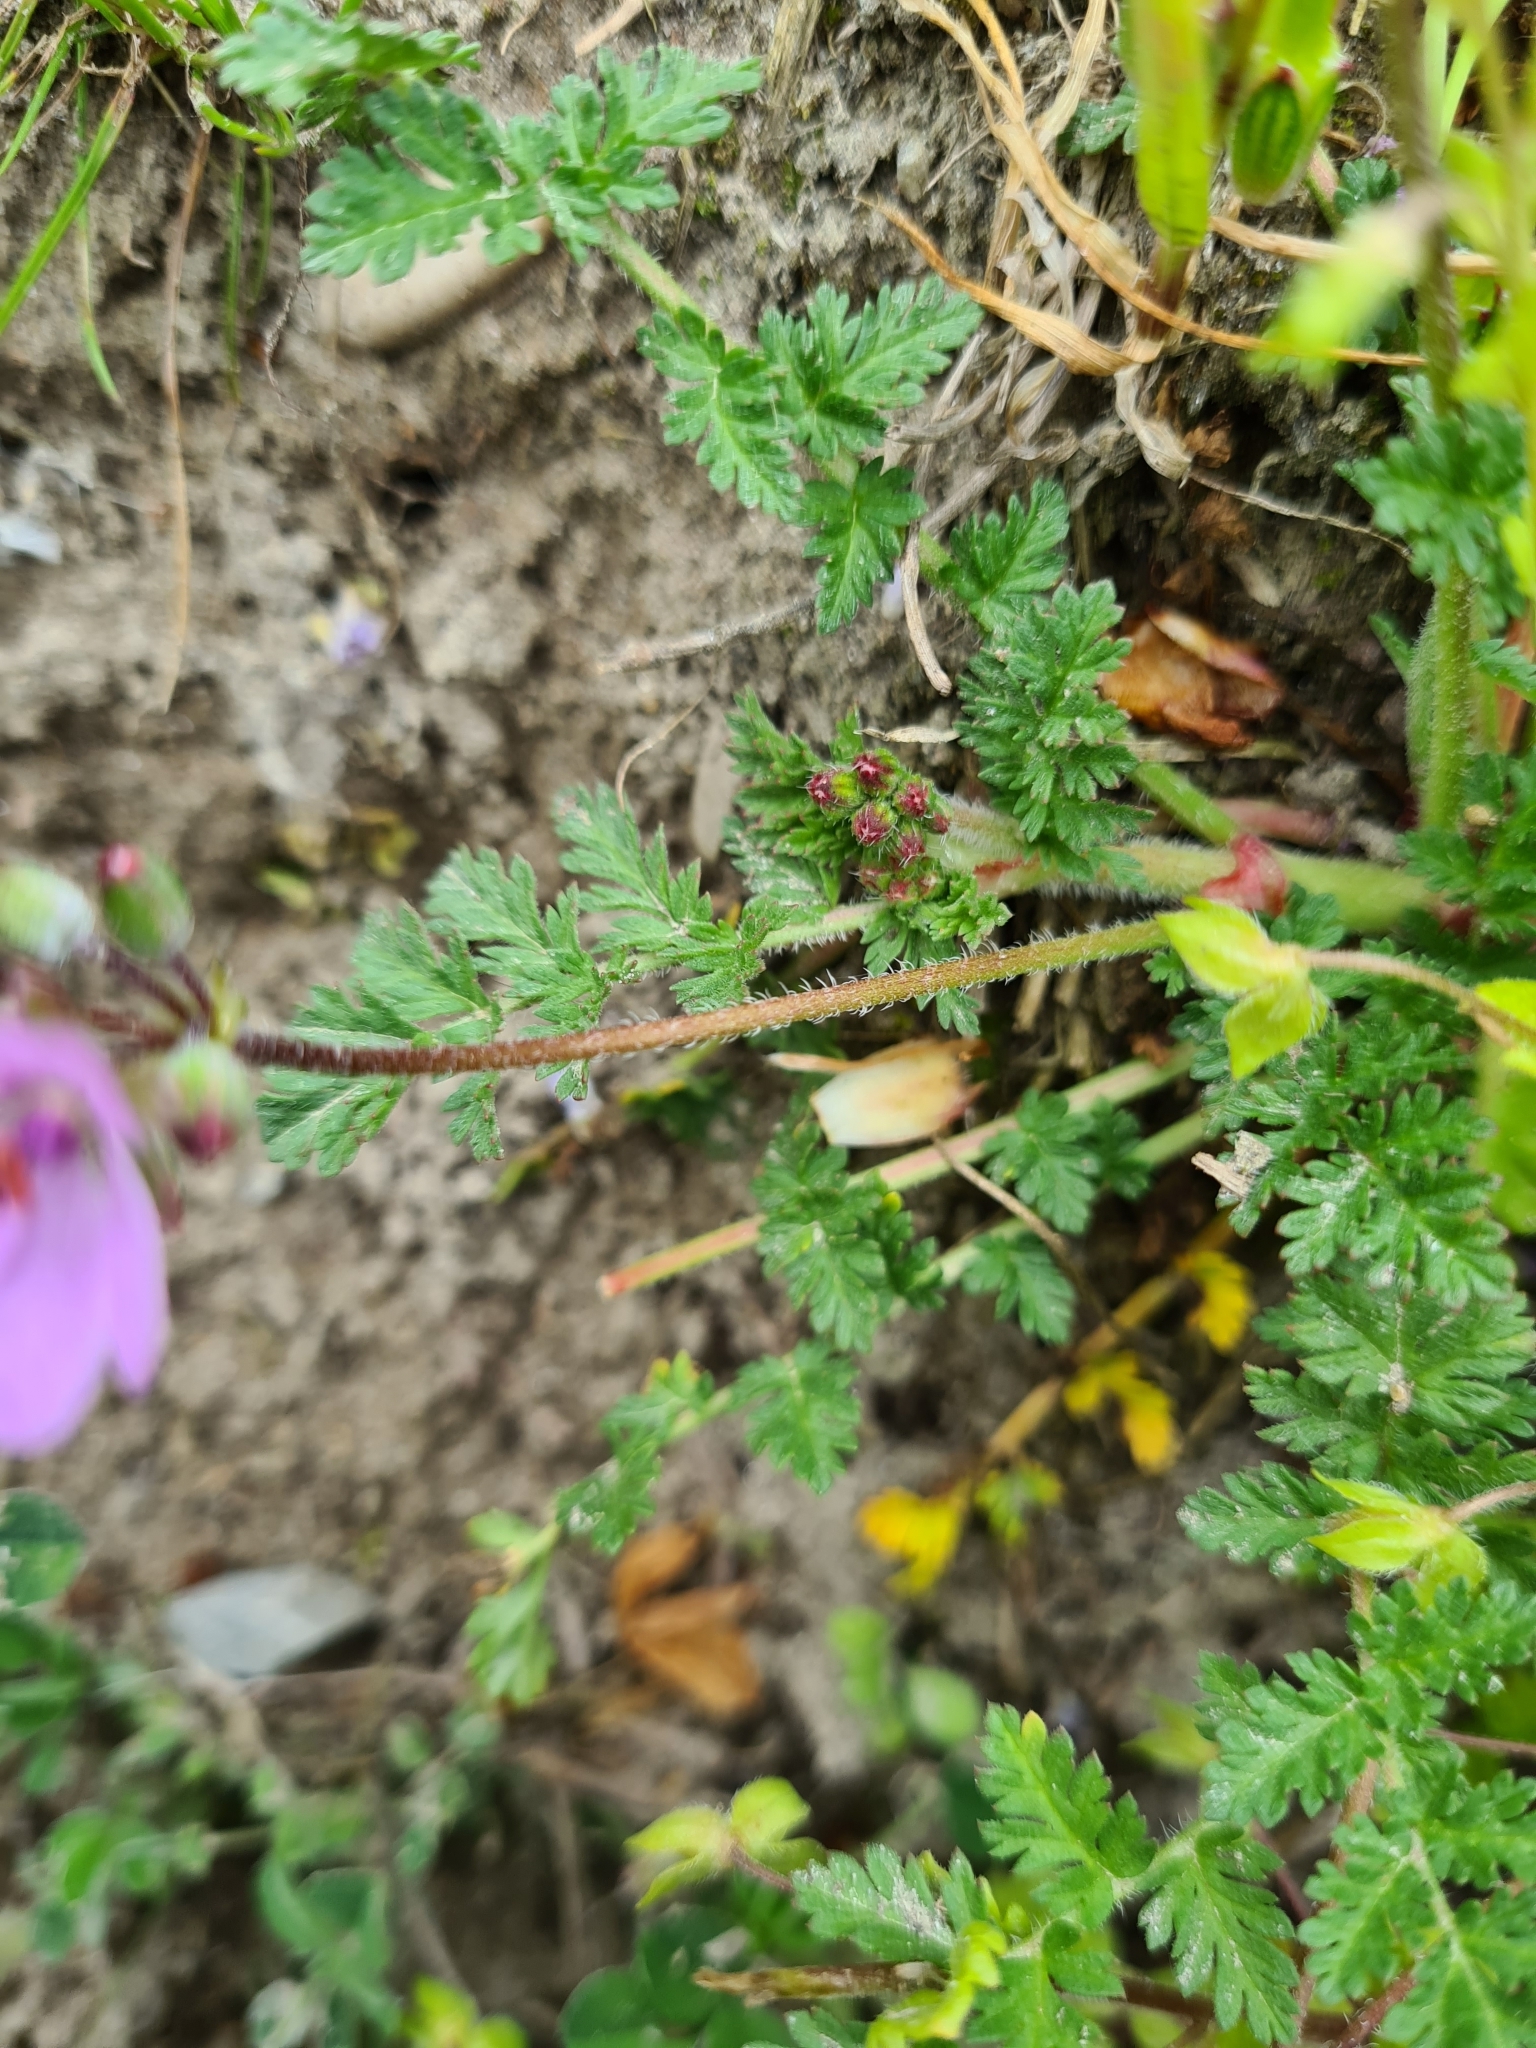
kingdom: Plantae
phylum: Tracheophyta
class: Magnoliopsida
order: Geraniales
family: Geraniaceae
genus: Erodium
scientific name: Erodium cicutarium
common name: Common stork's-bill
